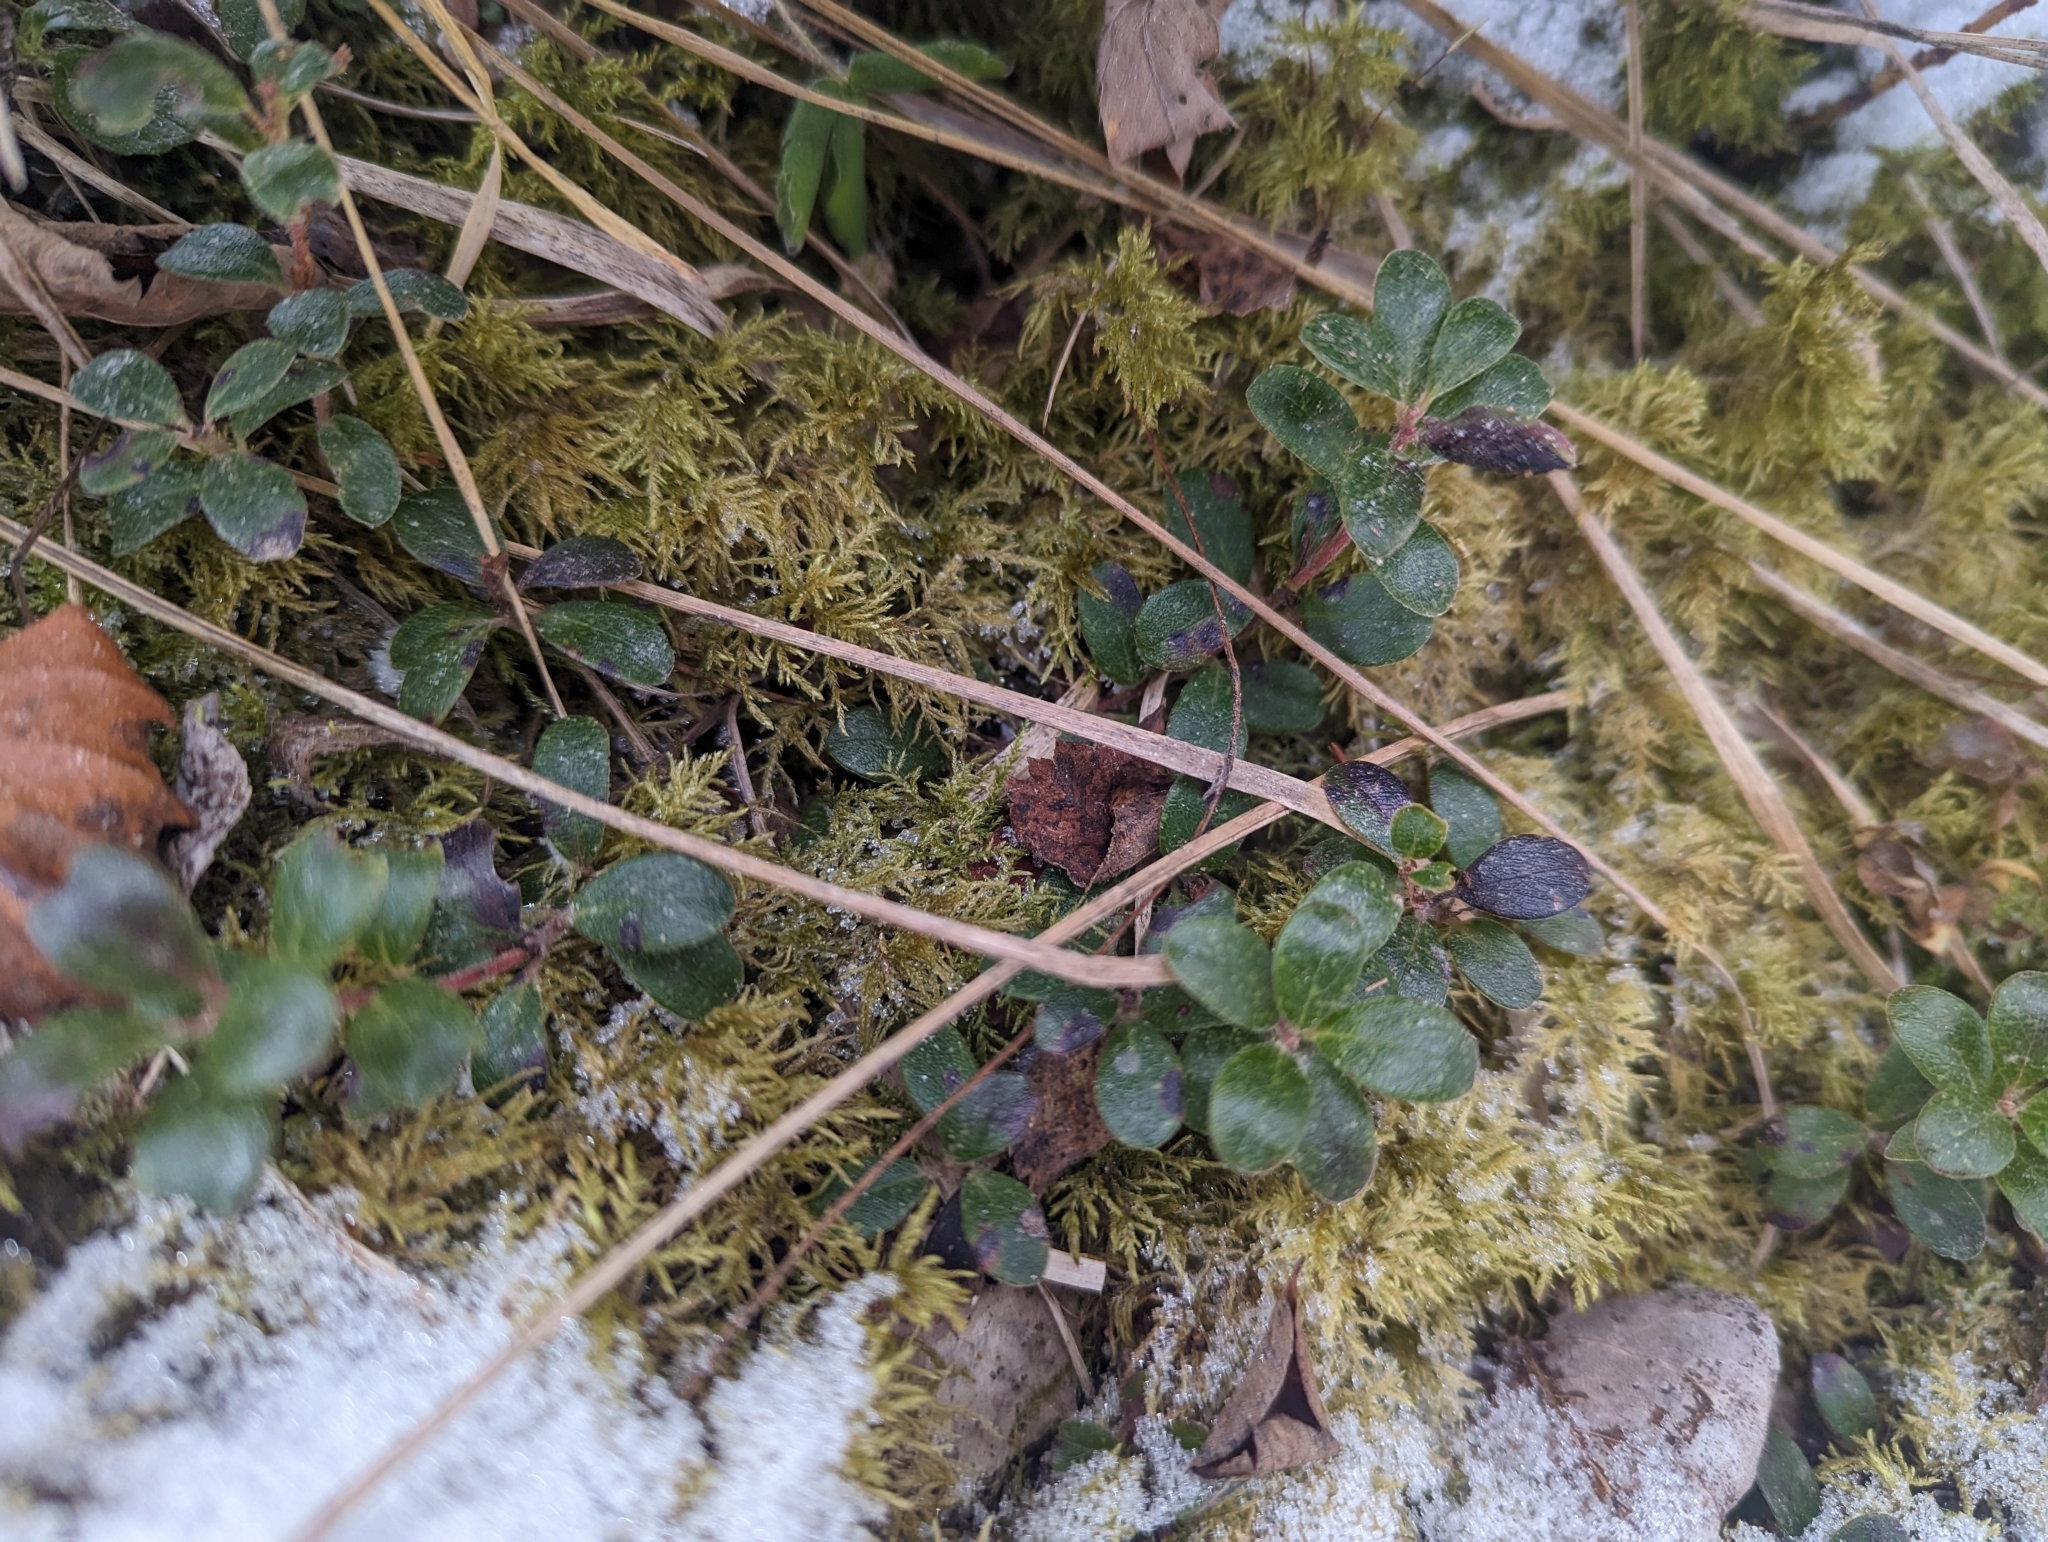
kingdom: Plantae
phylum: Tracheophyta
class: Magnoliopsida
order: Ericales
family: Ericaceae
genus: Arctostaphylos
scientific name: Arctostaphylos uva-ursi
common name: Bearberry
